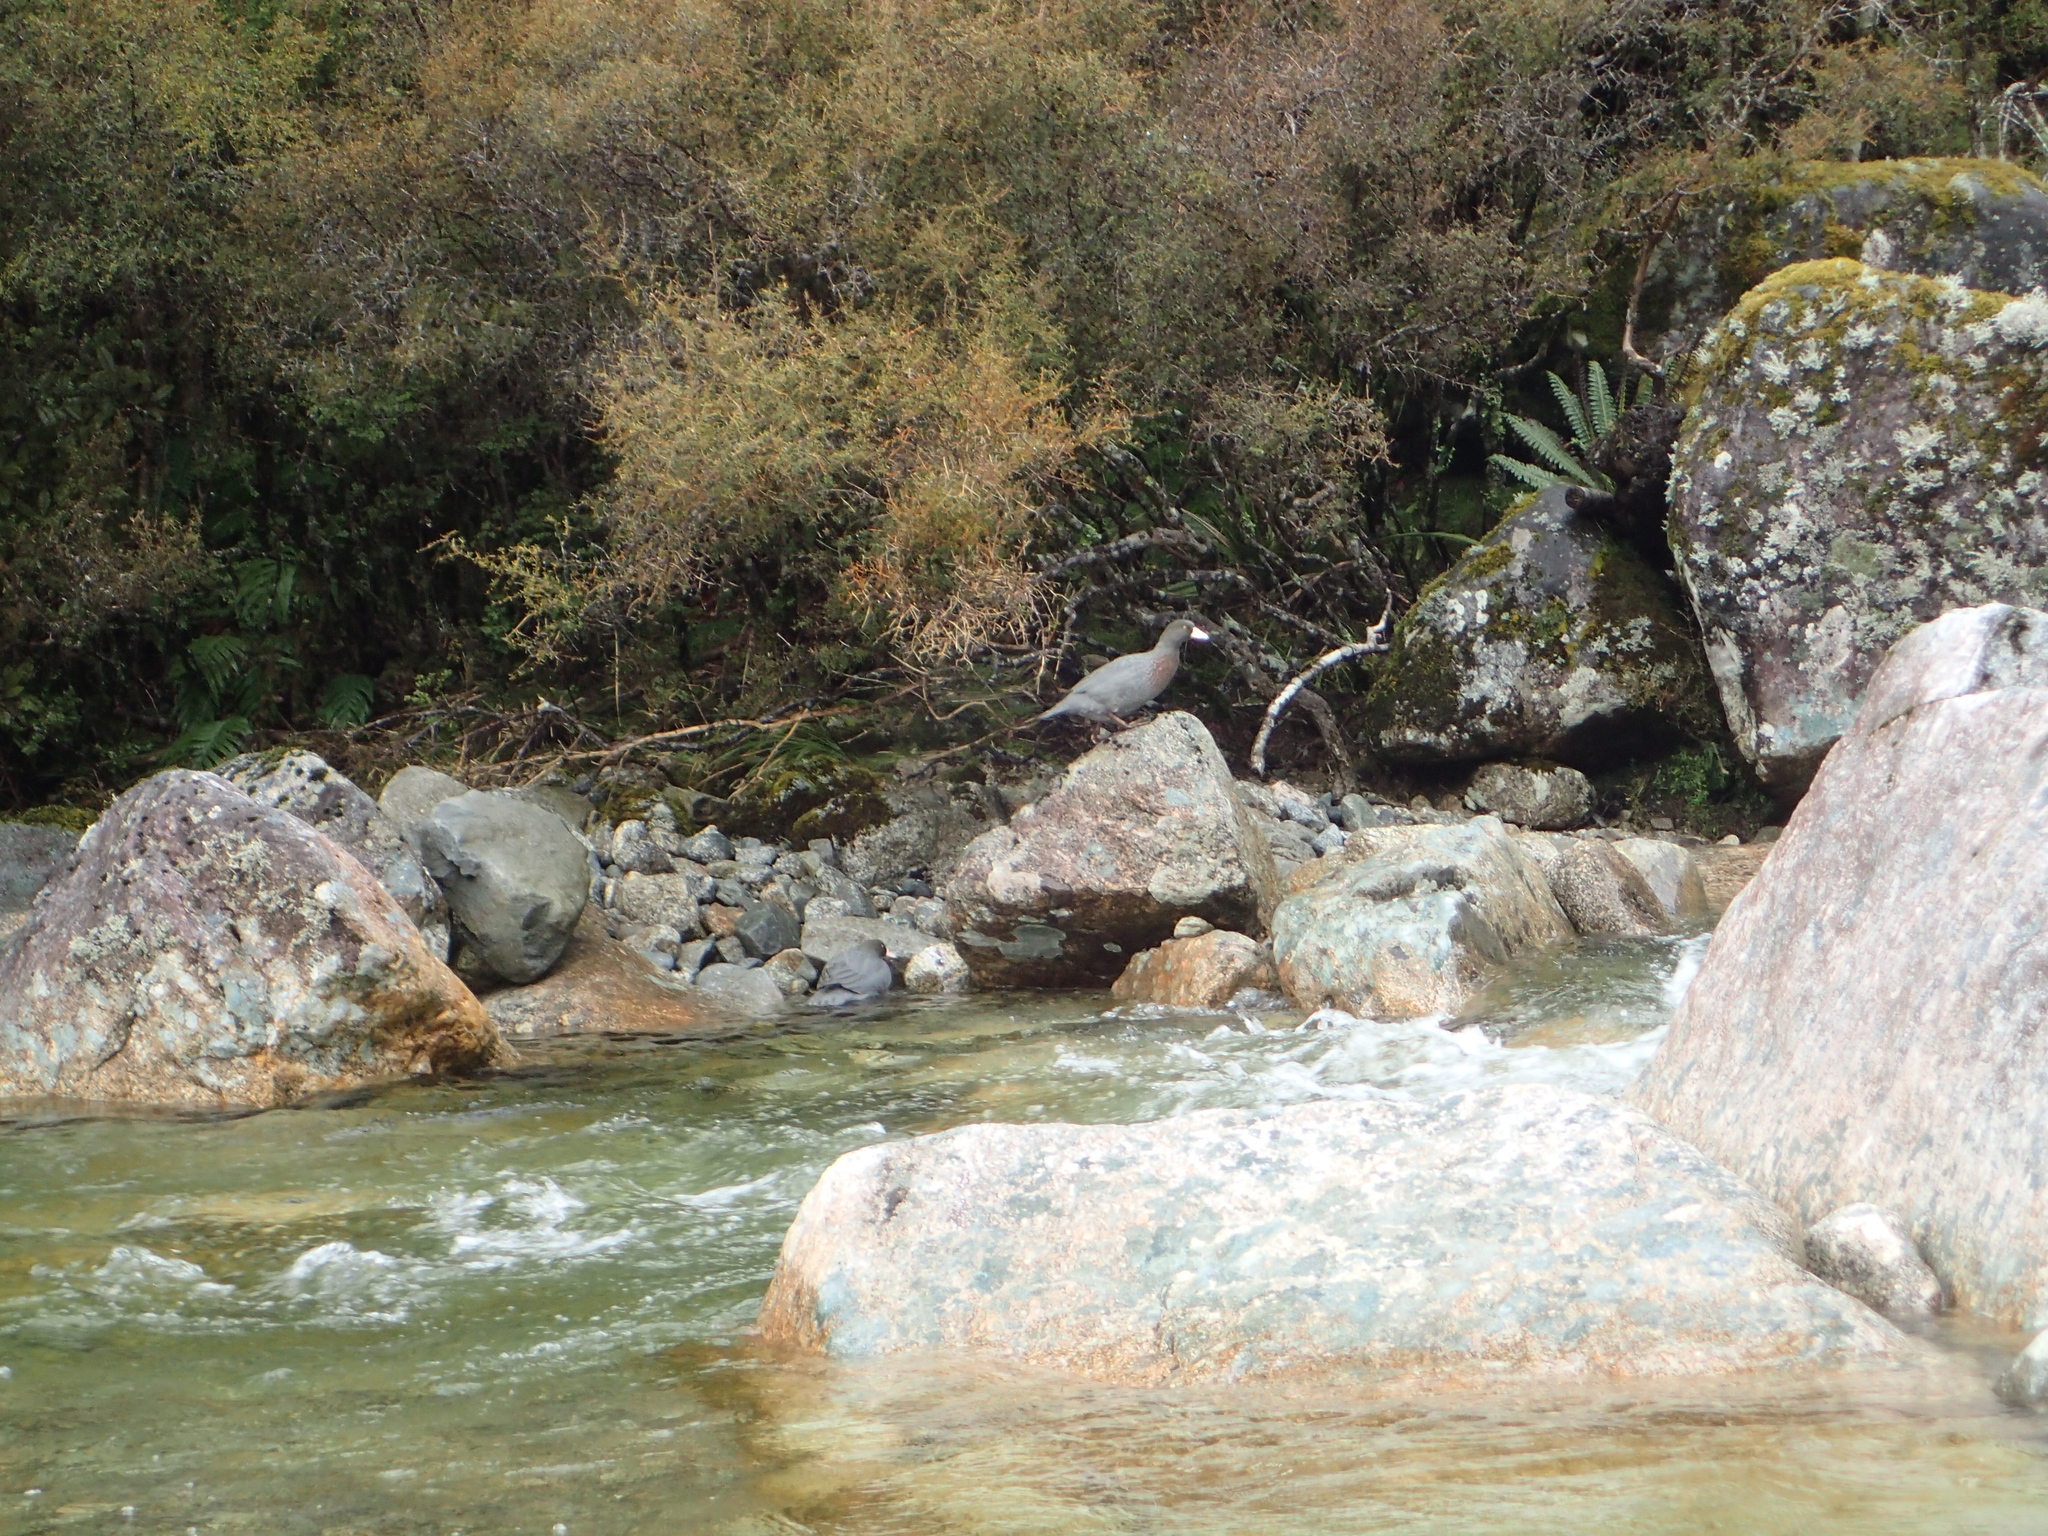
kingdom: Animalia
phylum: Chordata
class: Aves
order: Anseriformes
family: Anatidae
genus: Hymenolaimus
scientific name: Hymenolaimus malacorhynchos
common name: Blue duck
